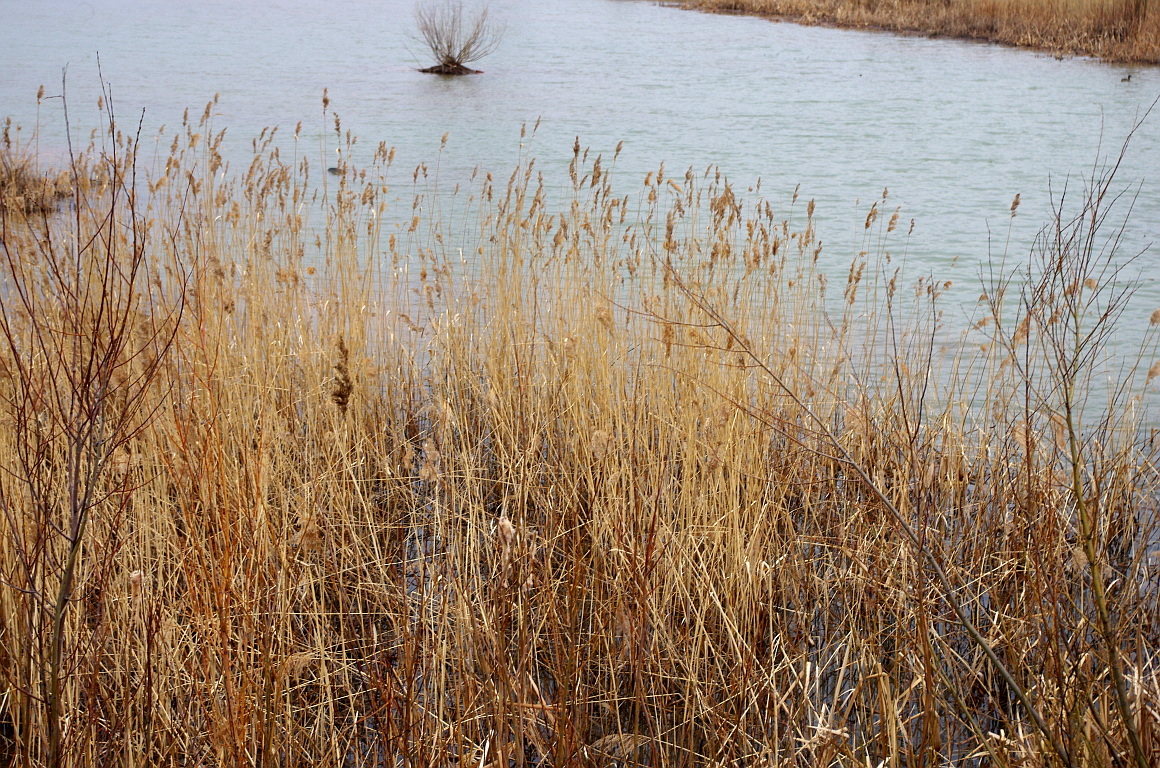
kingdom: Plantae
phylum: Tracheophyta
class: Liliopsida
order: Poales
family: Poaceae
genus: Phragmites
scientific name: Phragmites australis
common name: Common reed
